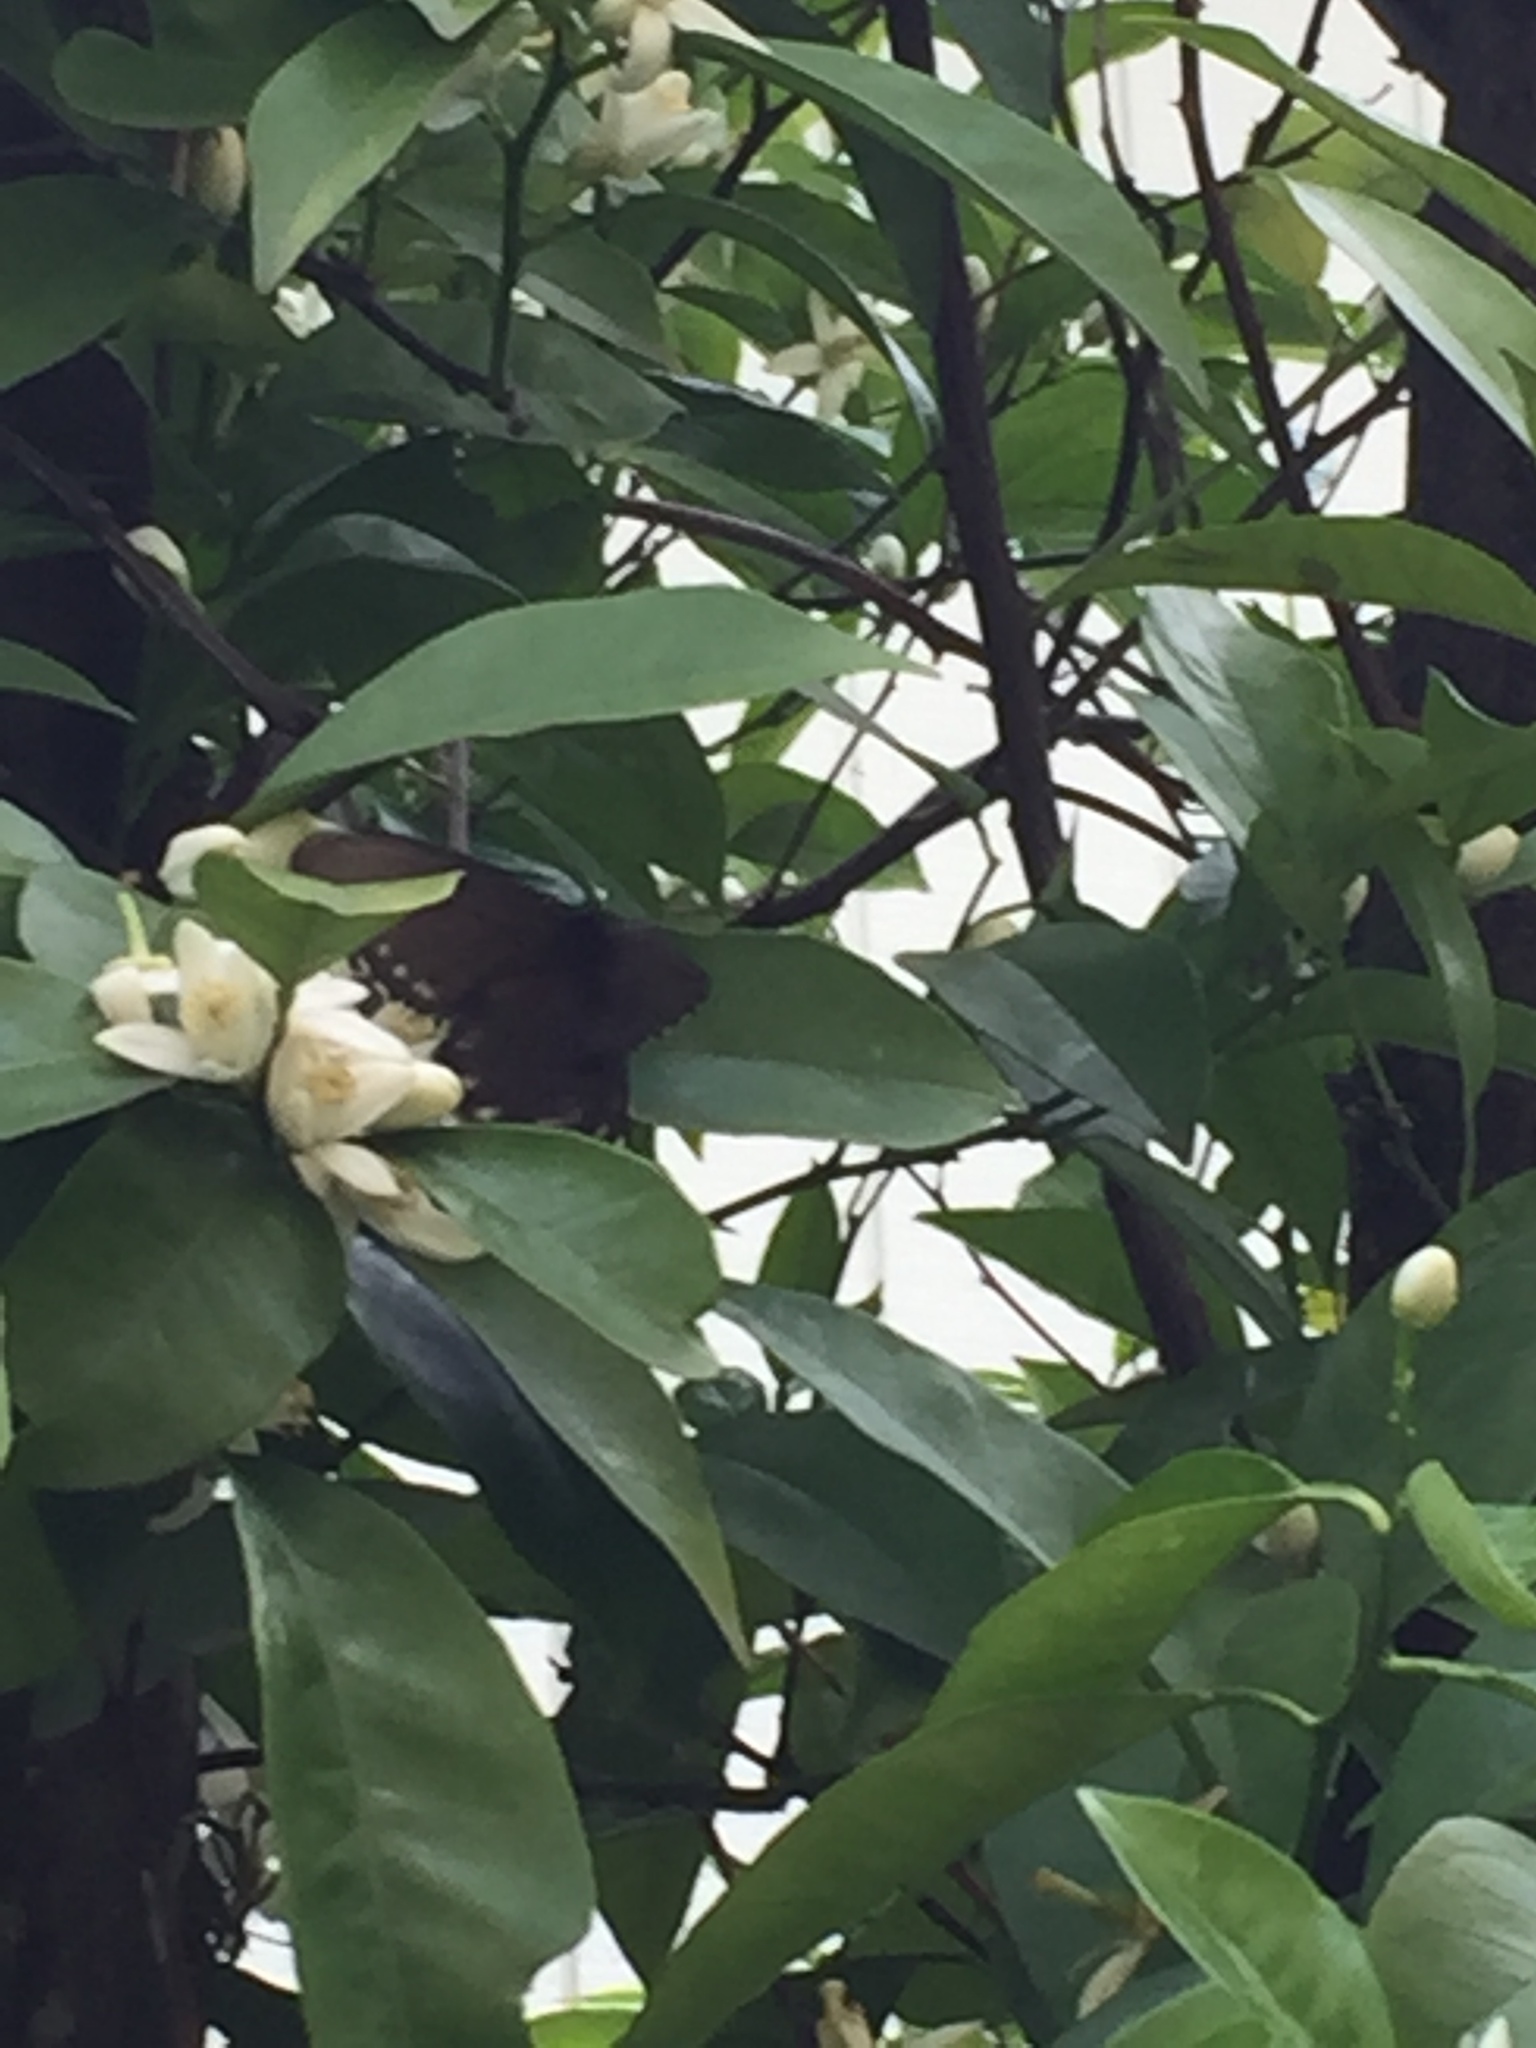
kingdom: Animalia
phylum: Arthropoda
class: Insecta
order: Lepidoptera
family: Papilionidae
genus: Battus
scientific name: Battus philenor
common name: Pipevine swallowtail
